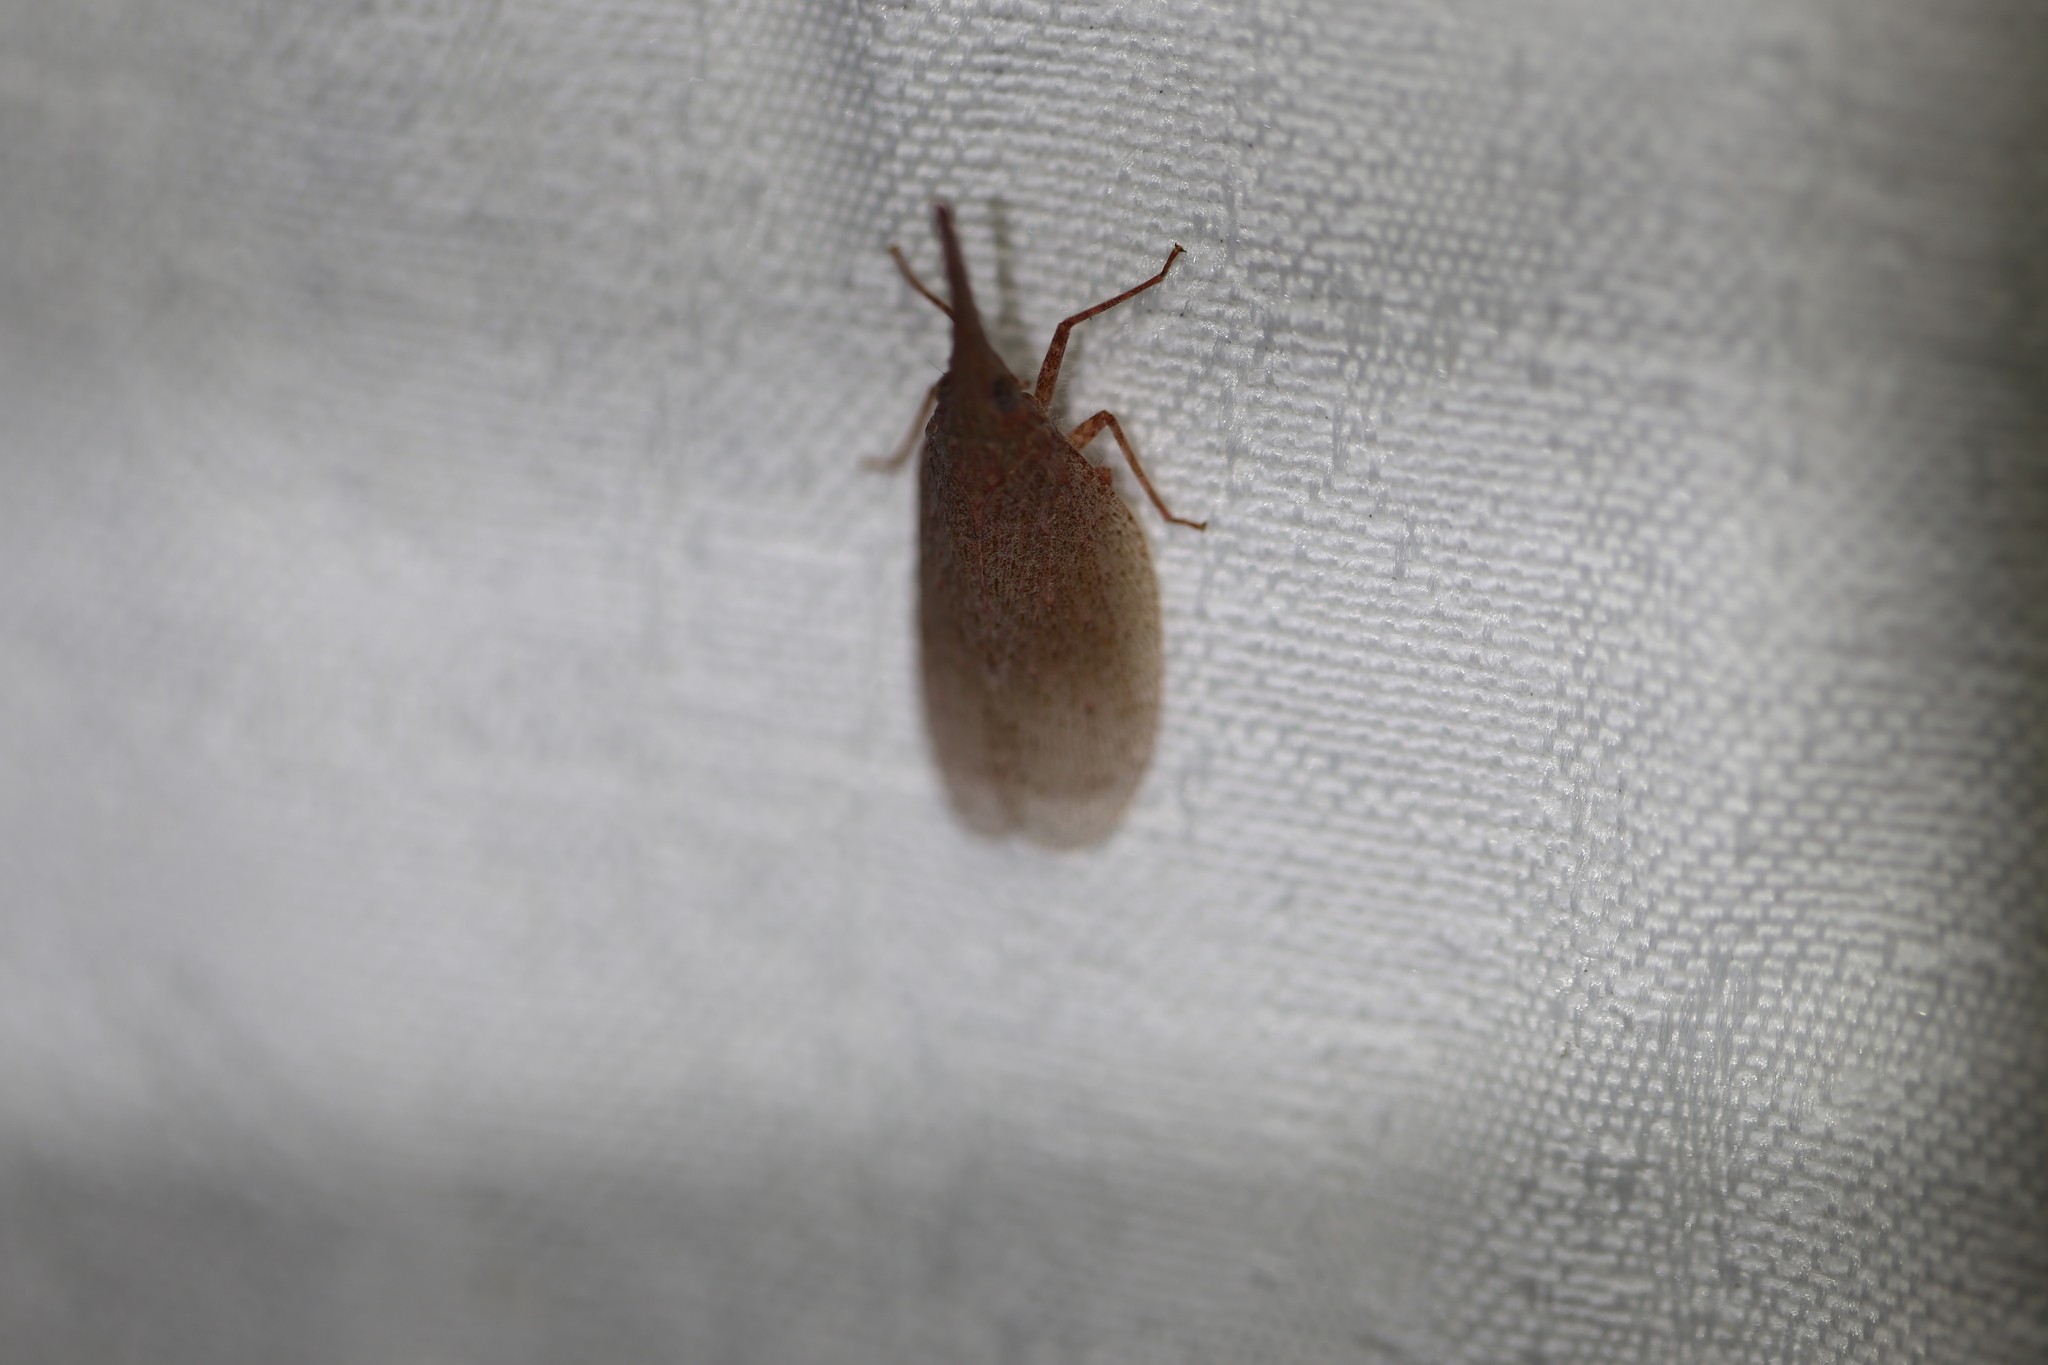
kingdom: Animalia
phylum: Arthropoda
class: Insecta
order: Hemiptera
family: Fulgoridae
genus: Rentinus
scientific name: Rentinus dilatatus
